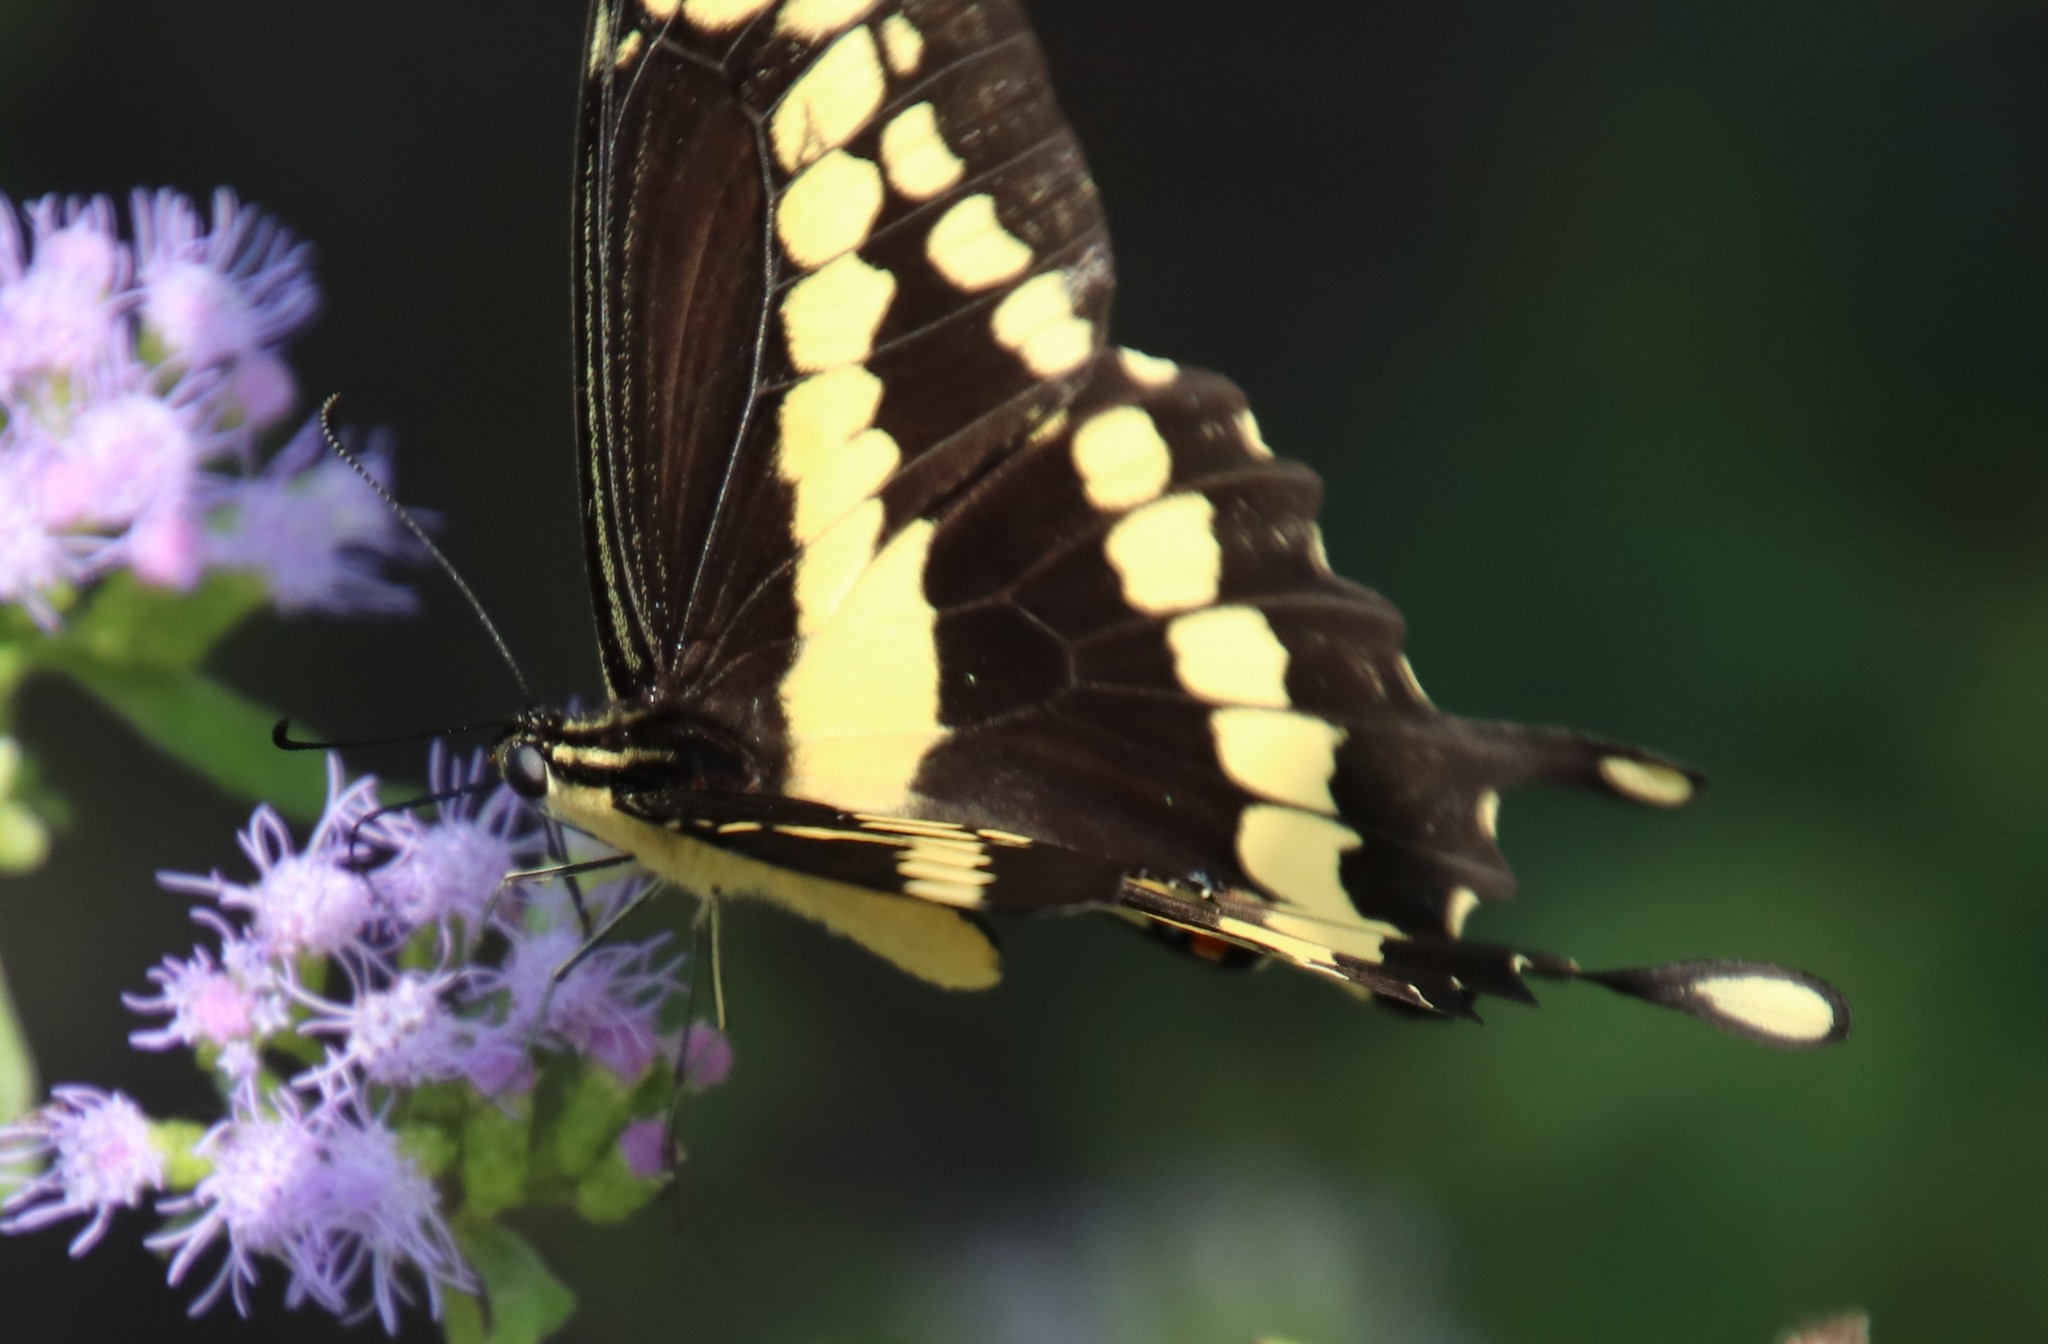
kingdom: Animalia
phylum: Arthropoda
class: Insecta
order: Lepidoptera
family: Papilionidae
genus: Papilio
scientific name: Papilio rumiko
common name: Western giant swallowtail
